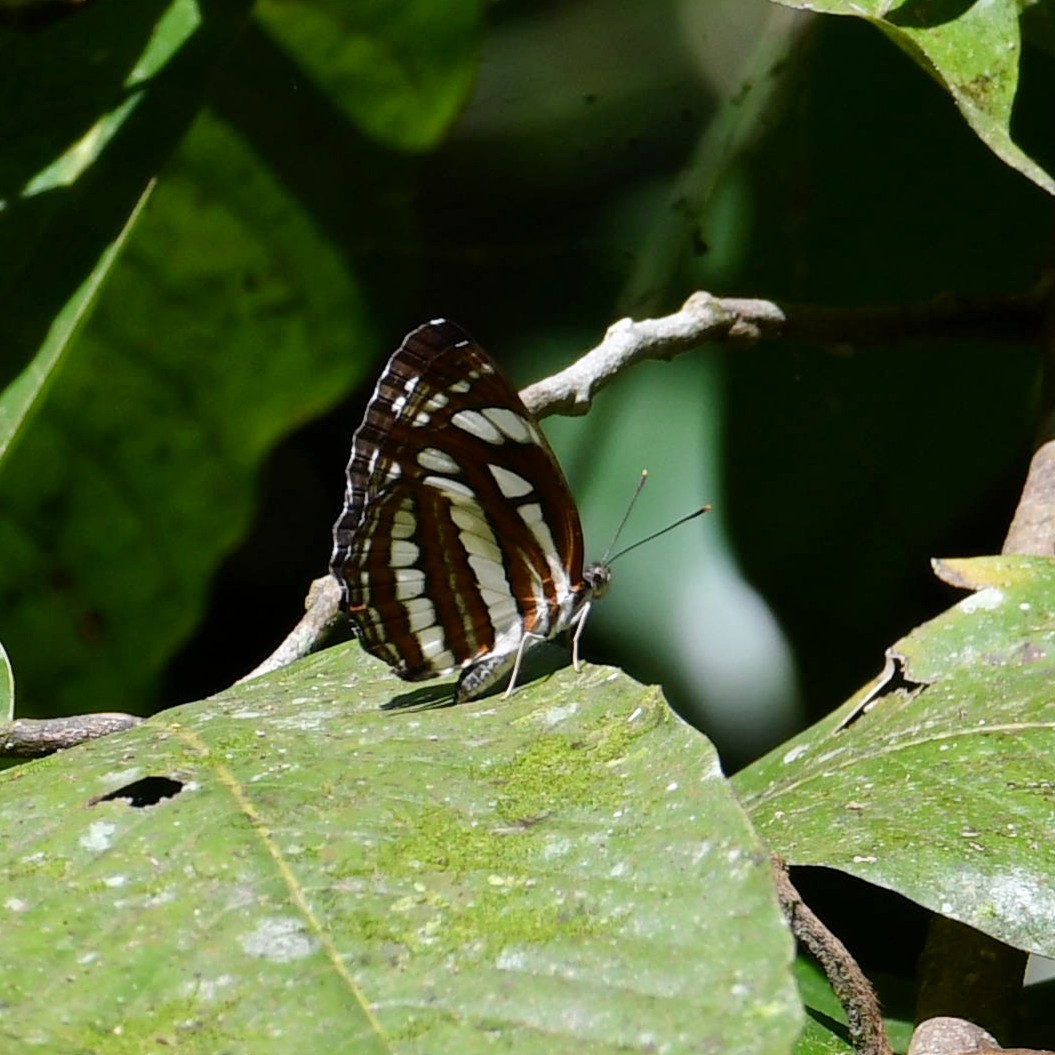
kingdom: Animalia
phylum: Arthropoda
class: Insecta
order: Lepidoptera
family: Nymphalidae
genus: Neptis
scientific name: Neptis hylas
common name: Common sailer
